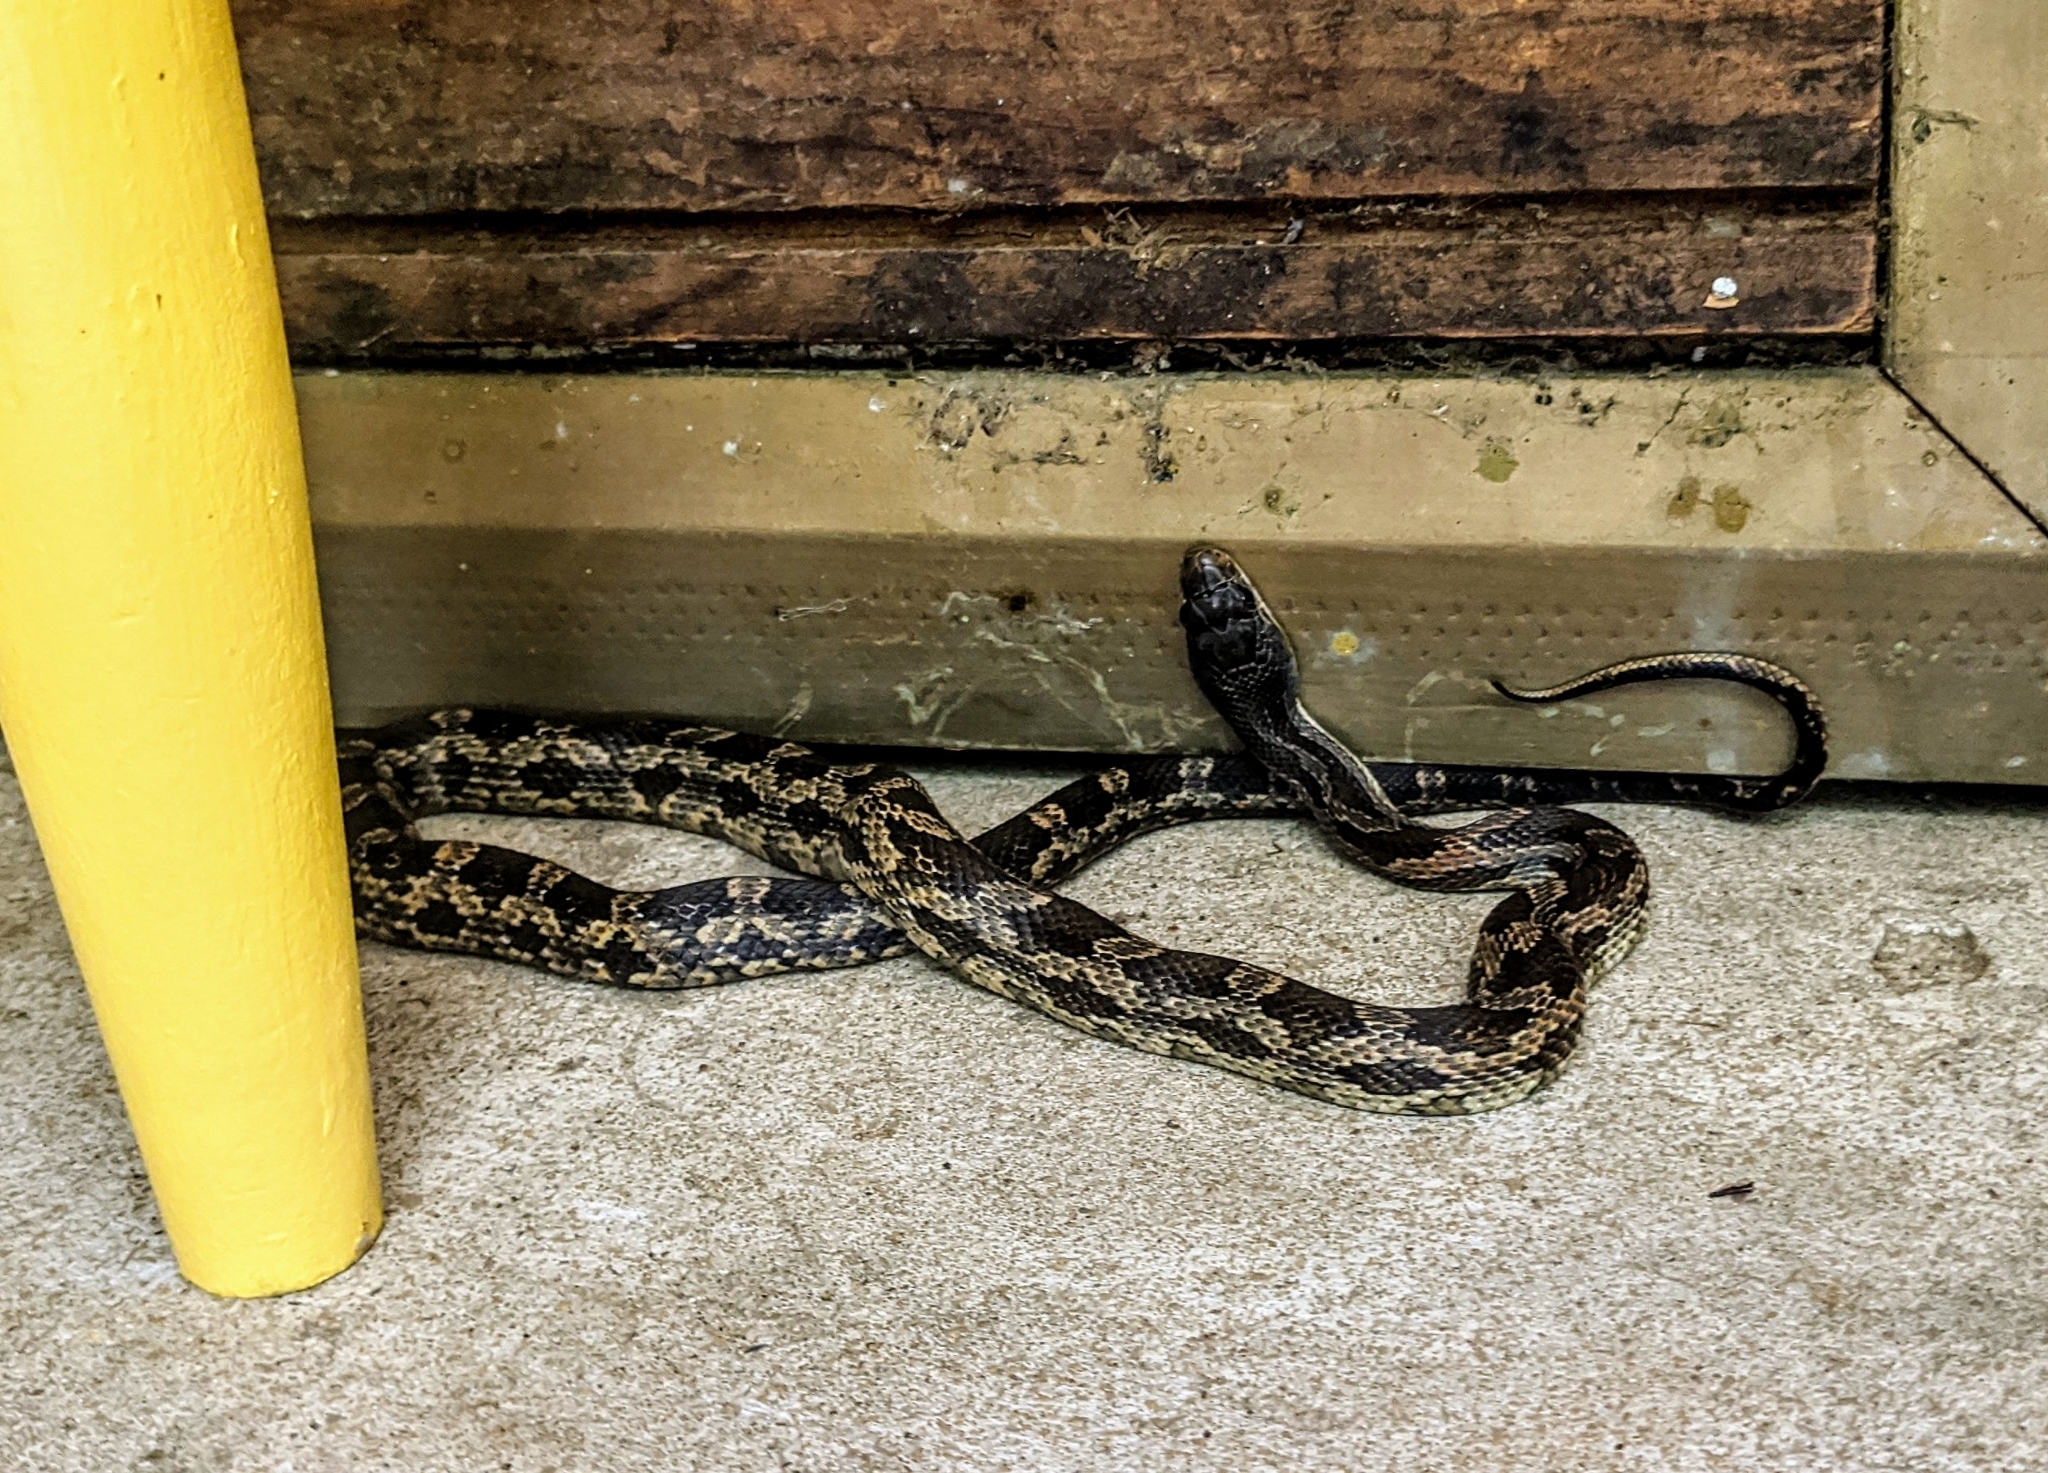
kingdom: Animalia
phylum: Chordata
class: Squamata
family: Colubridae
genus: Pantherophis
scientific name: Pantherophis obsoletus
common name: Black rat snake
